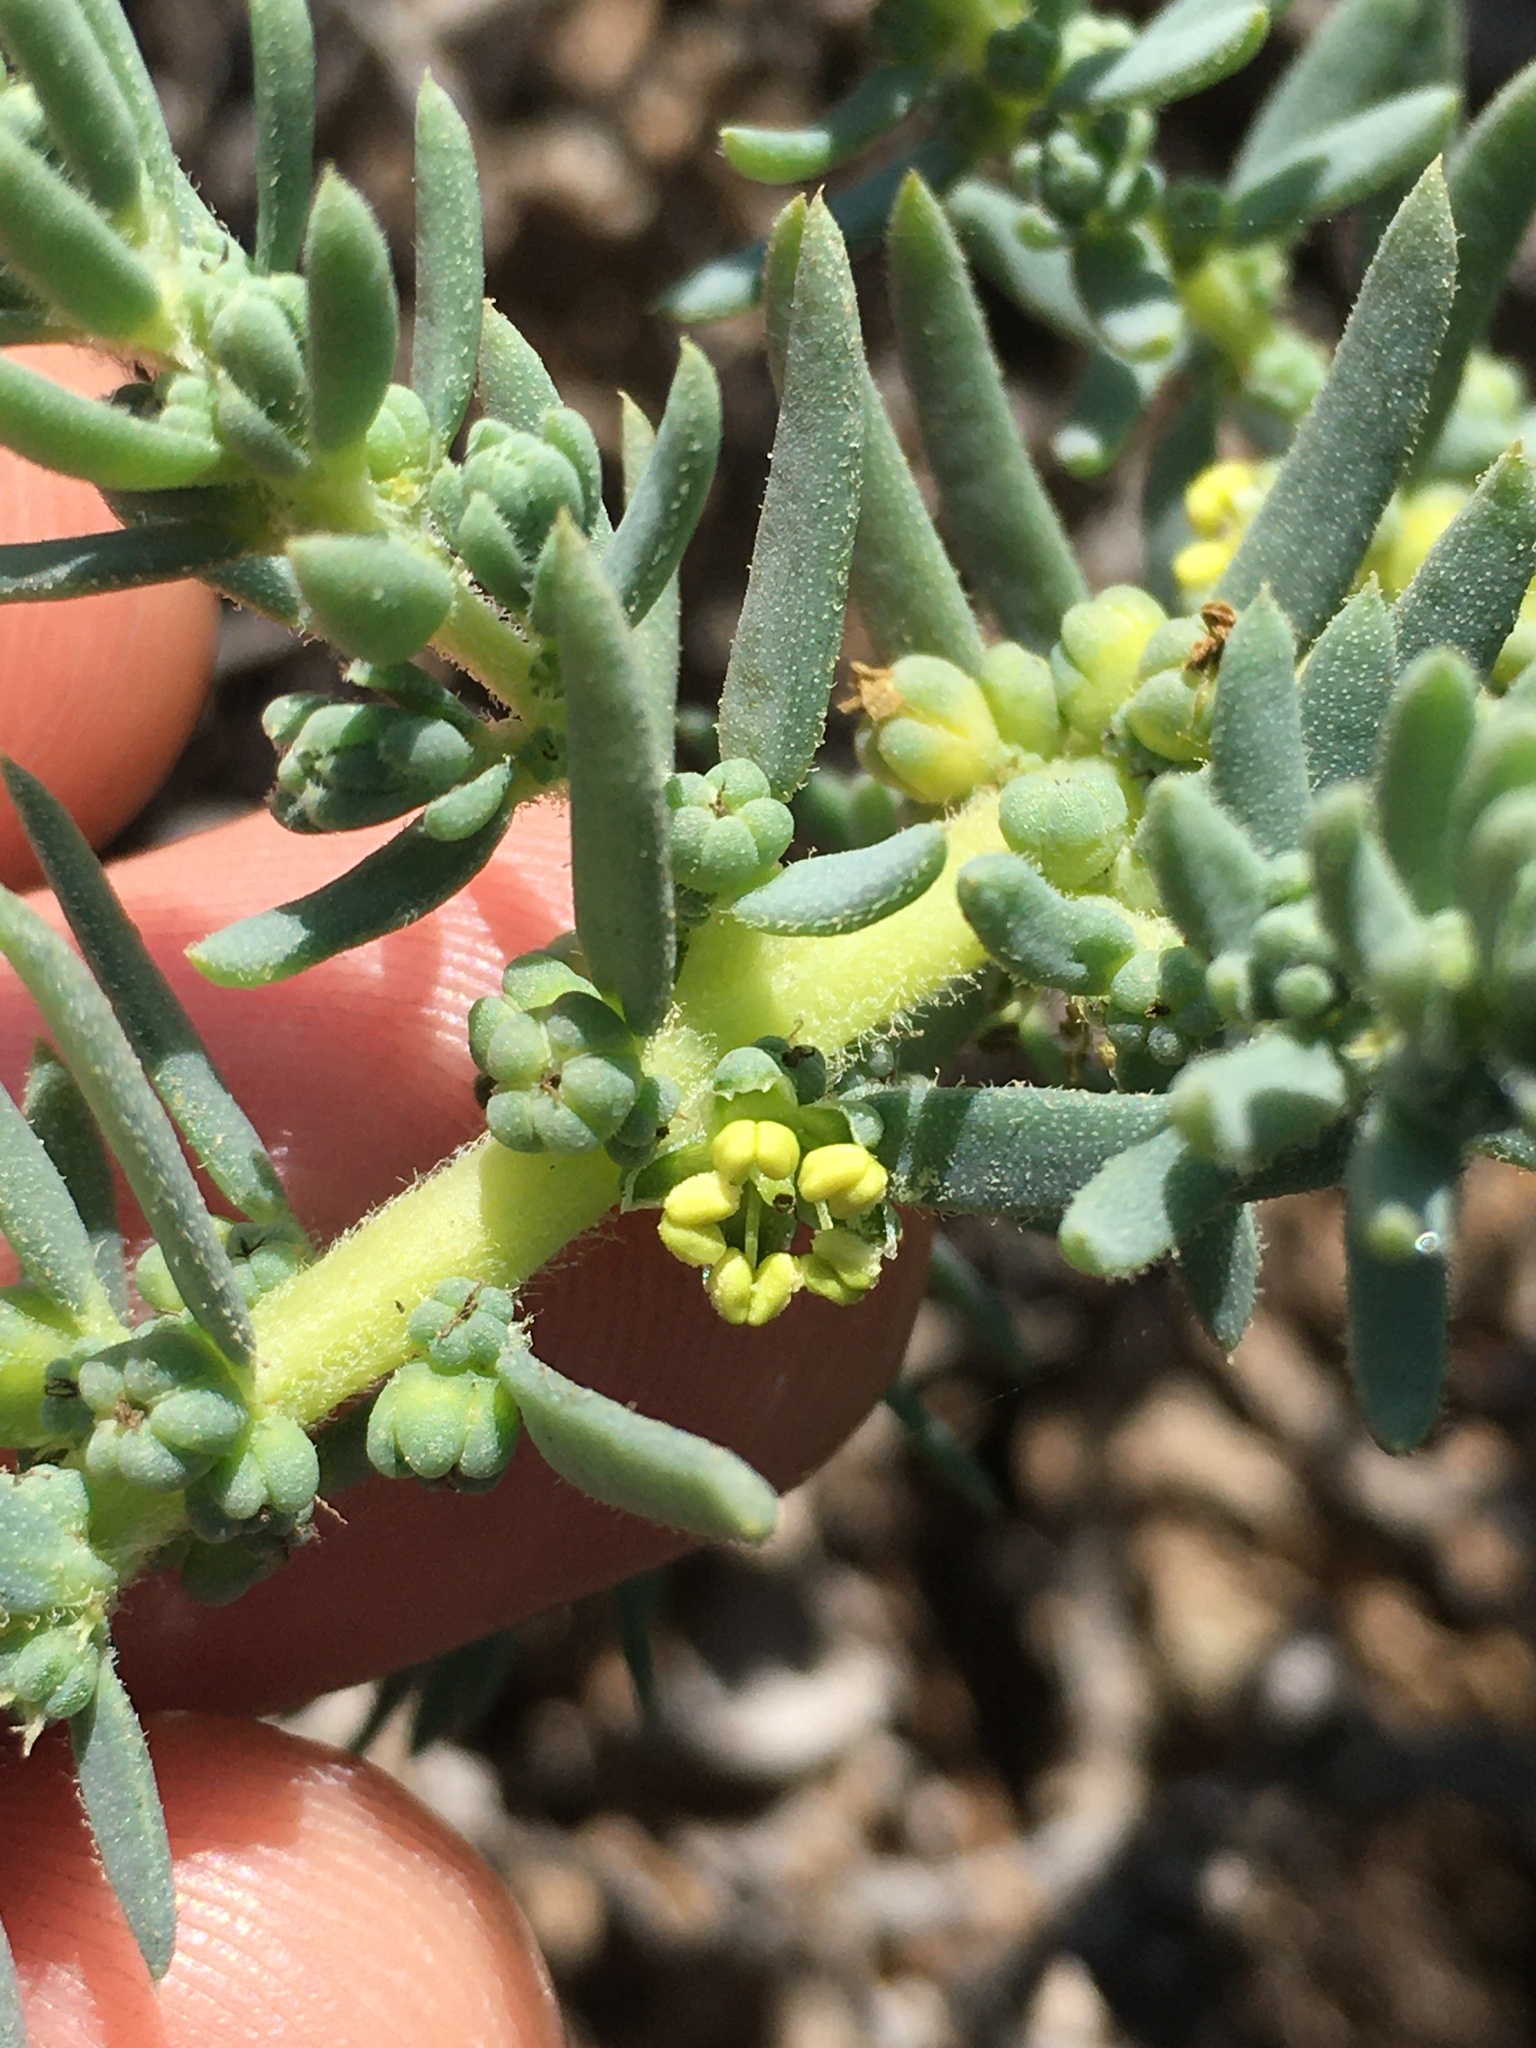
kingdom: Plantae
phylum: Tracheophyta
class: Magnoliopsida
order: Caryophyllales
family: Amaranthaceae
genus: Suaeda
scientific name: Suaeda taxifolia
